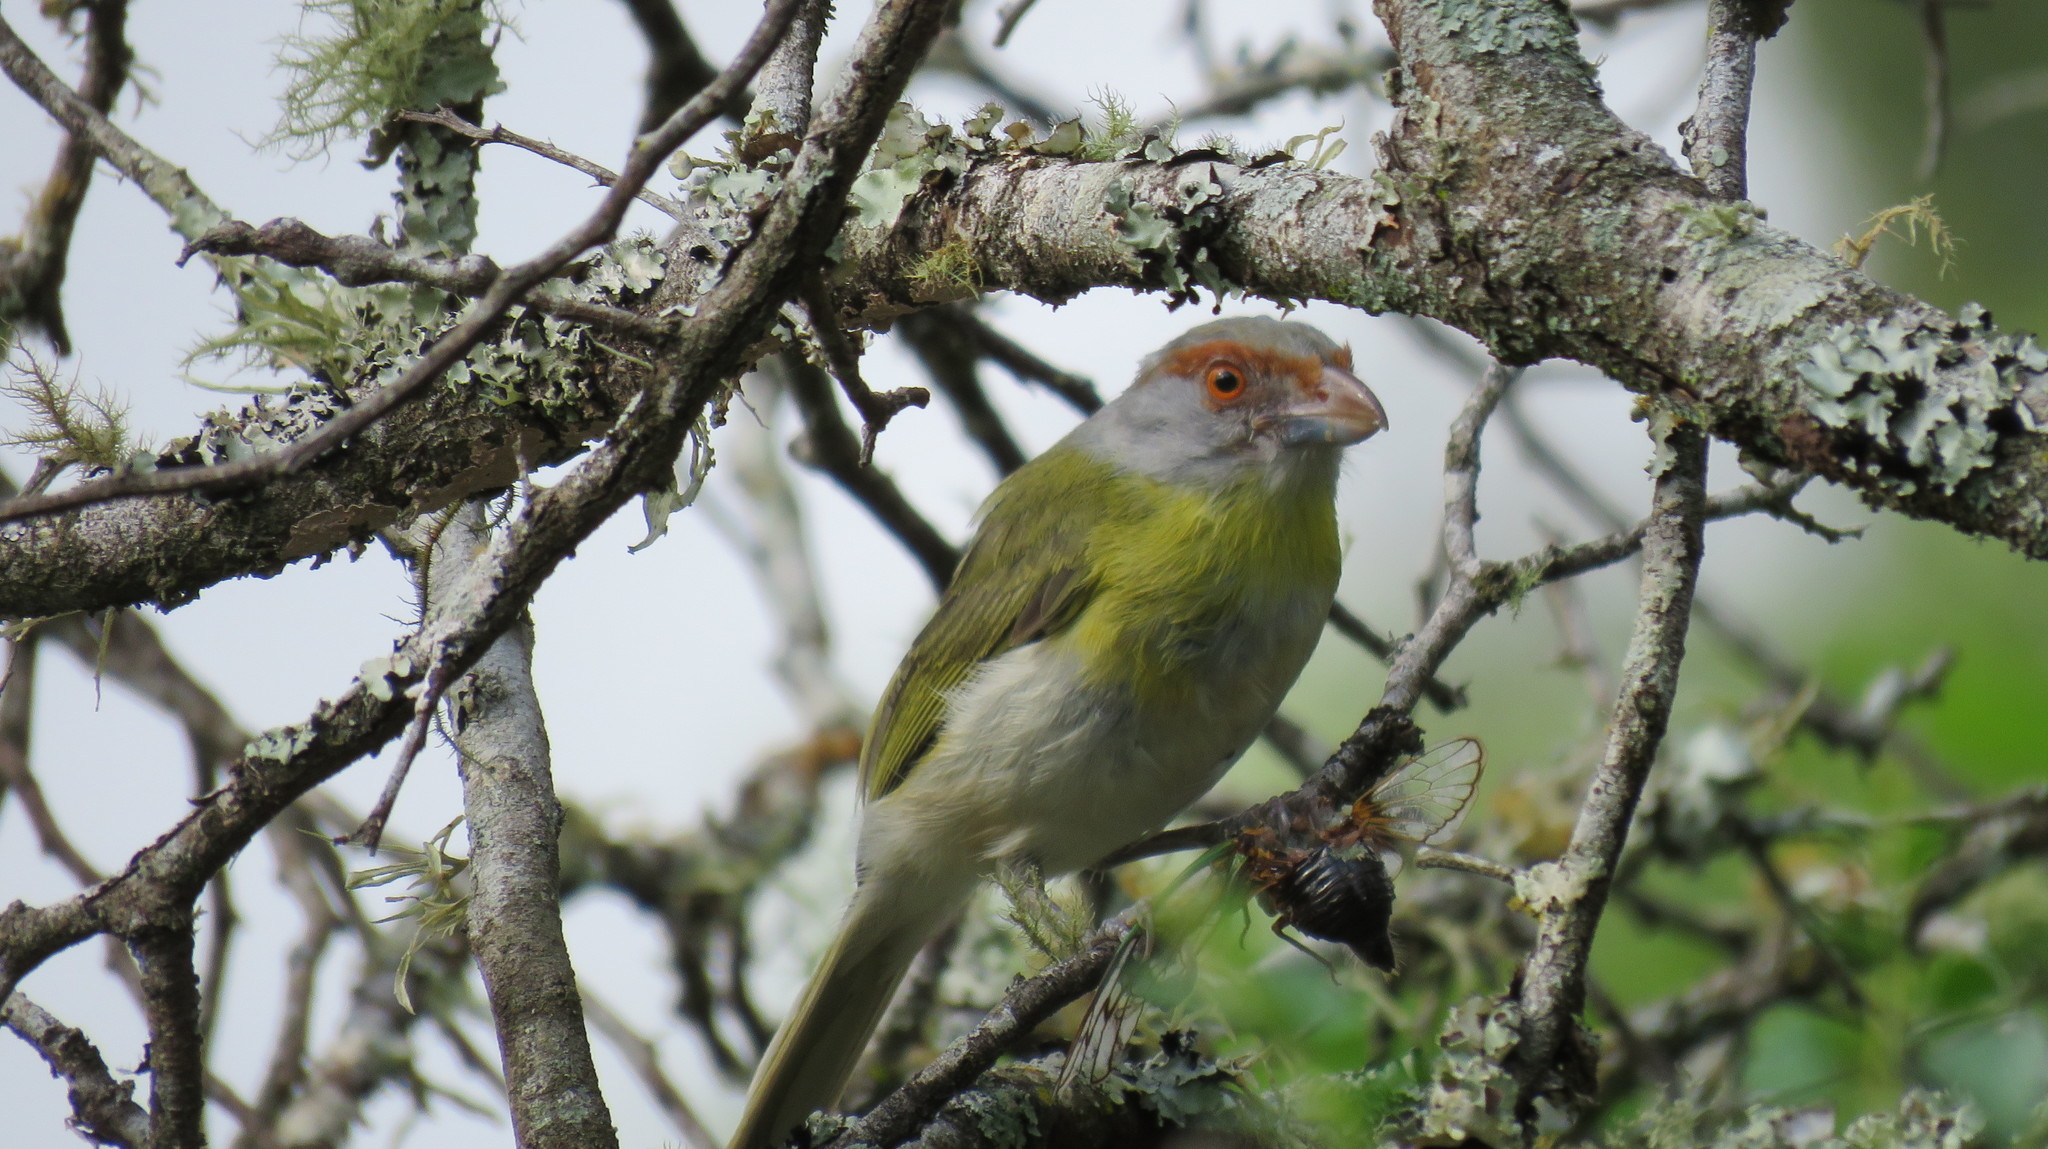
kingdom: Animalia
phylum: Chordata
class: Aves
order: Passeriformes
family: Vireonidae
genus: Cyclarhis
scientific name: Cyclarhis gujanensis
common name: Rufous-browed peppershrike
